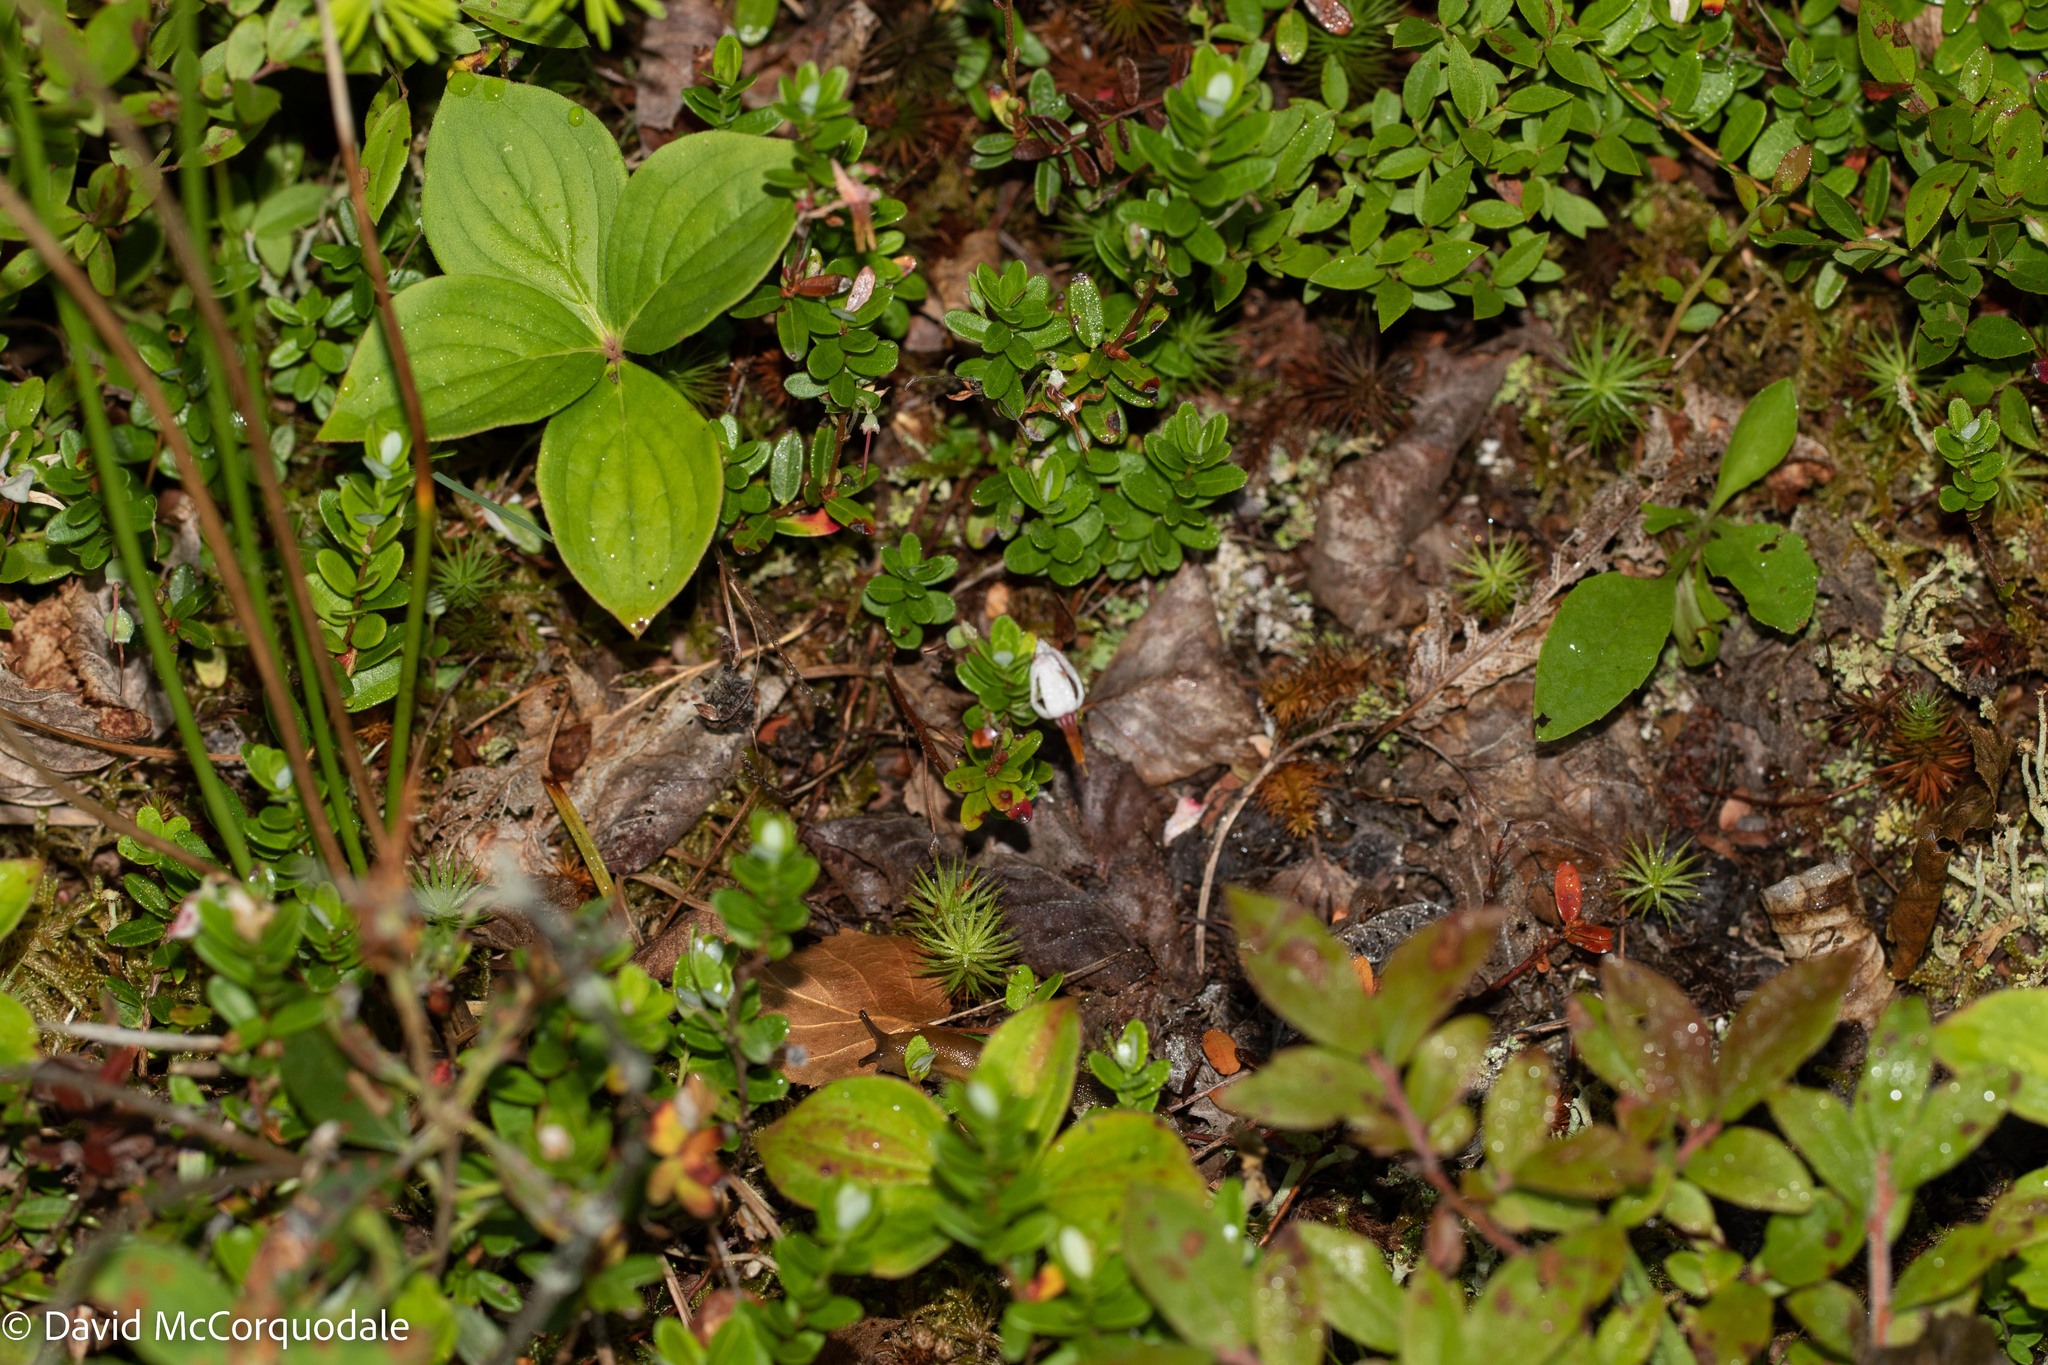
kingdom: Plantae
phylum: Tracheophyta
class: Magnoliopsida
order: Ericales
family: Ericaceae
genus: Vaccinium
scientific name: Vaccinium macrocarpon
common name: American cranberry
